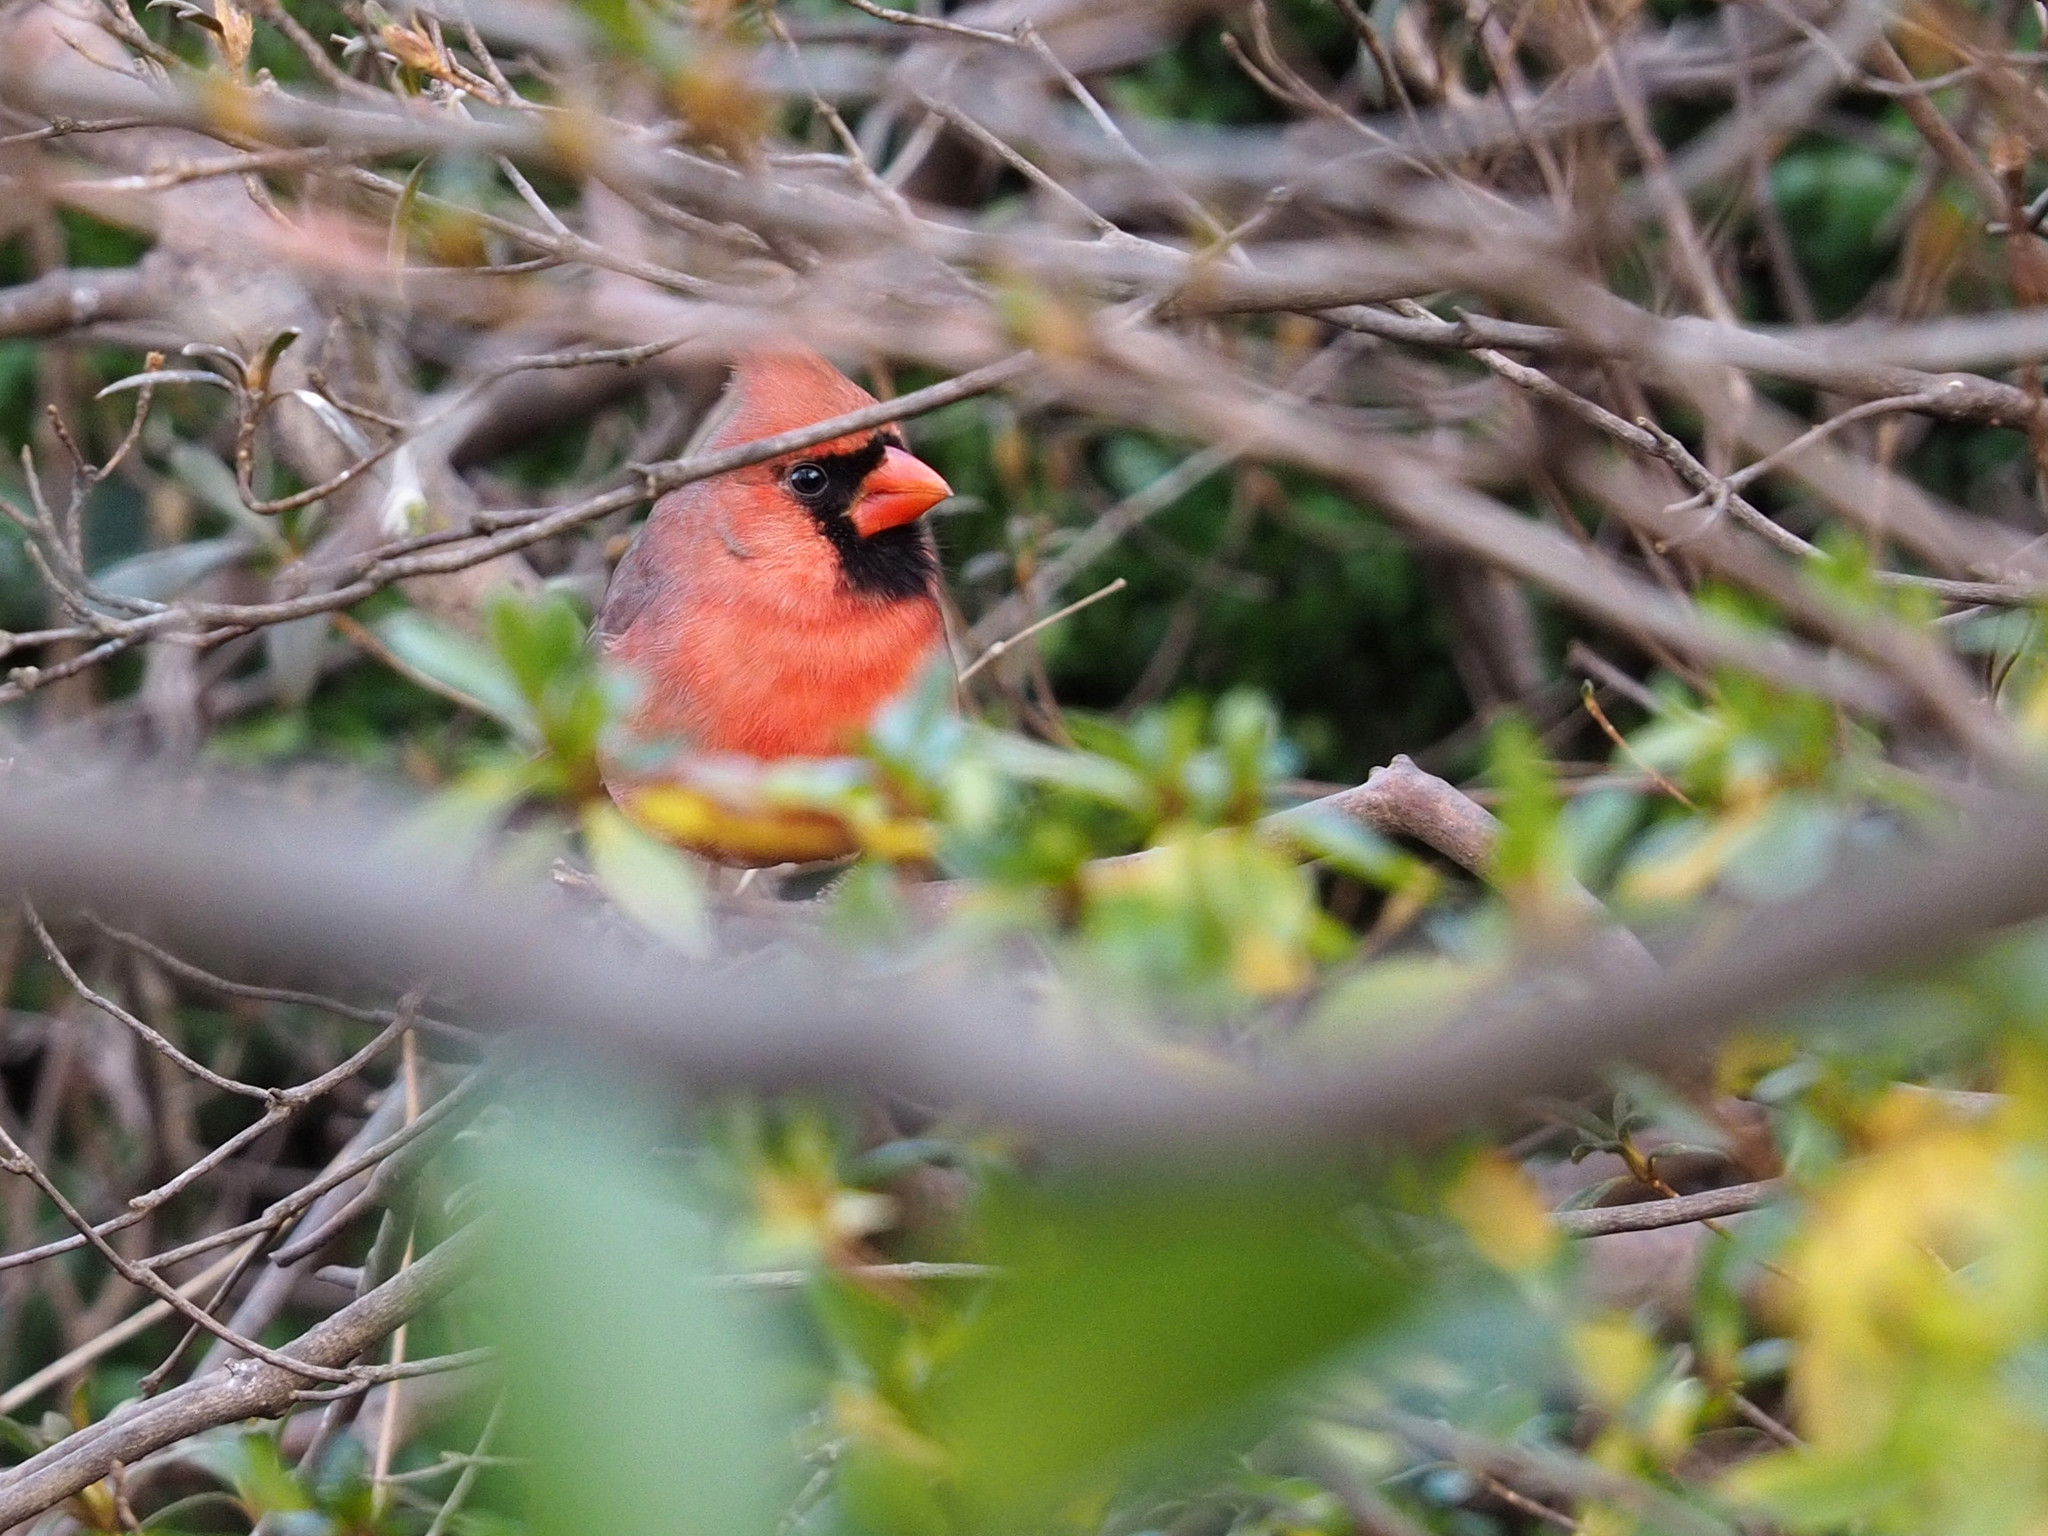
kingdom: Animalia
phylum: Chordata
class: Aves
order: Passeriformes
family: Cardinalidae
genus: Cardinalis
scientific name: Cardinalis cardinalis
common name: Northern cardinal
